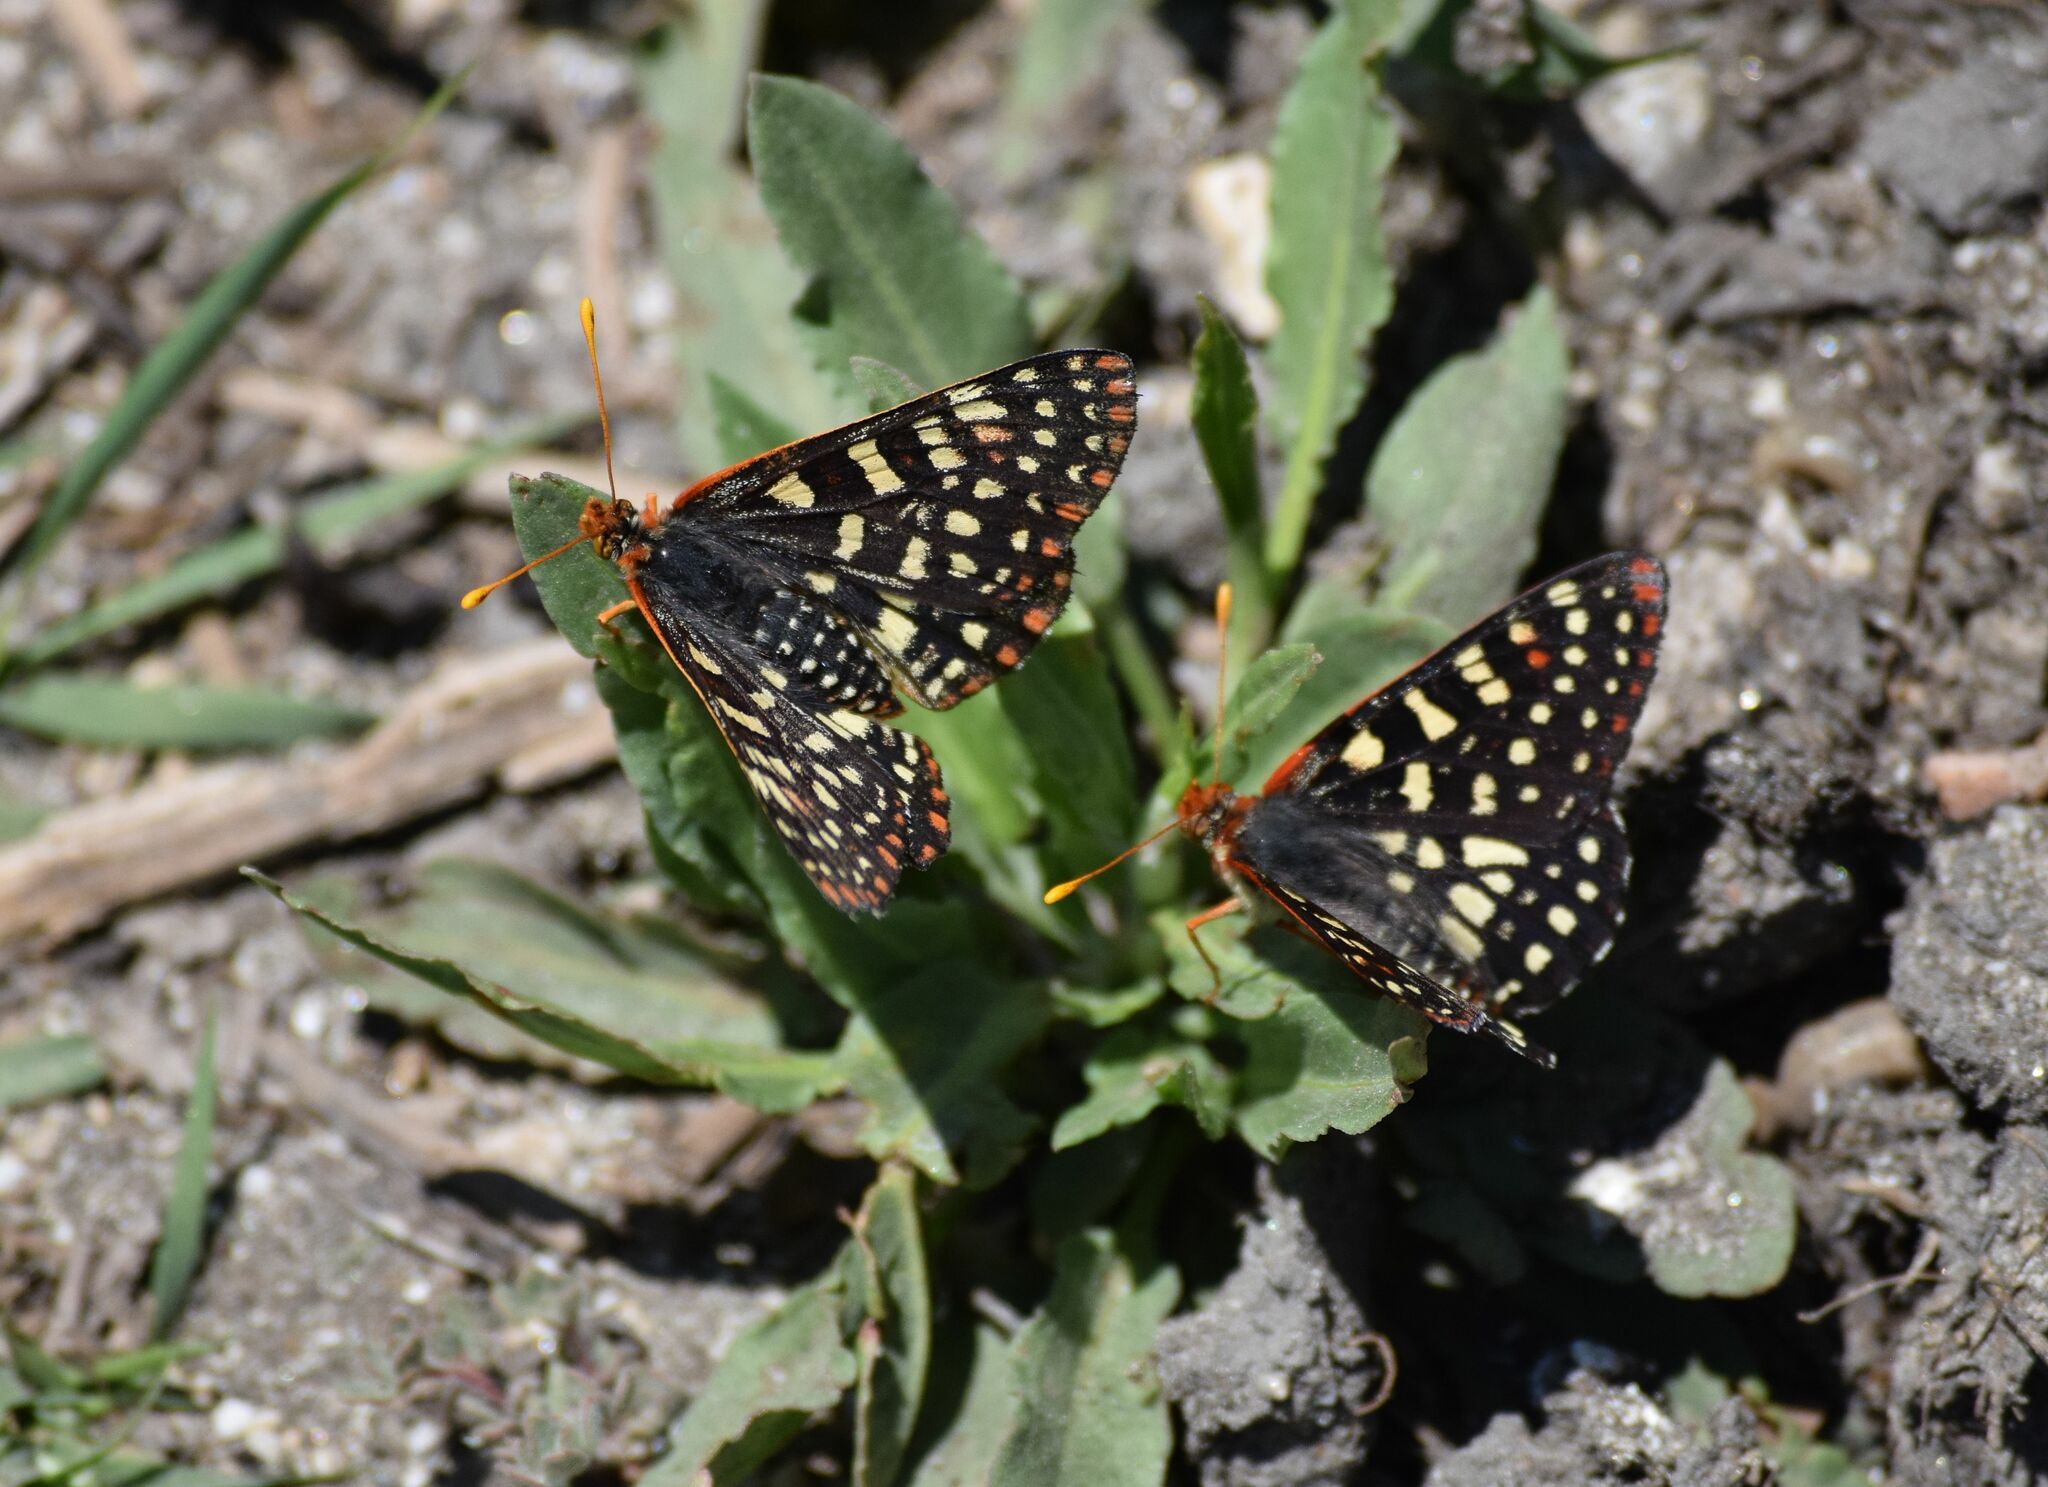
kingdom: Animalia
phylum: Arthropoda
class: Insecta
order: Lepidoptera
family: Nymphalidae
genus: Occidryas
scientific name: Occidryas chalcedona
